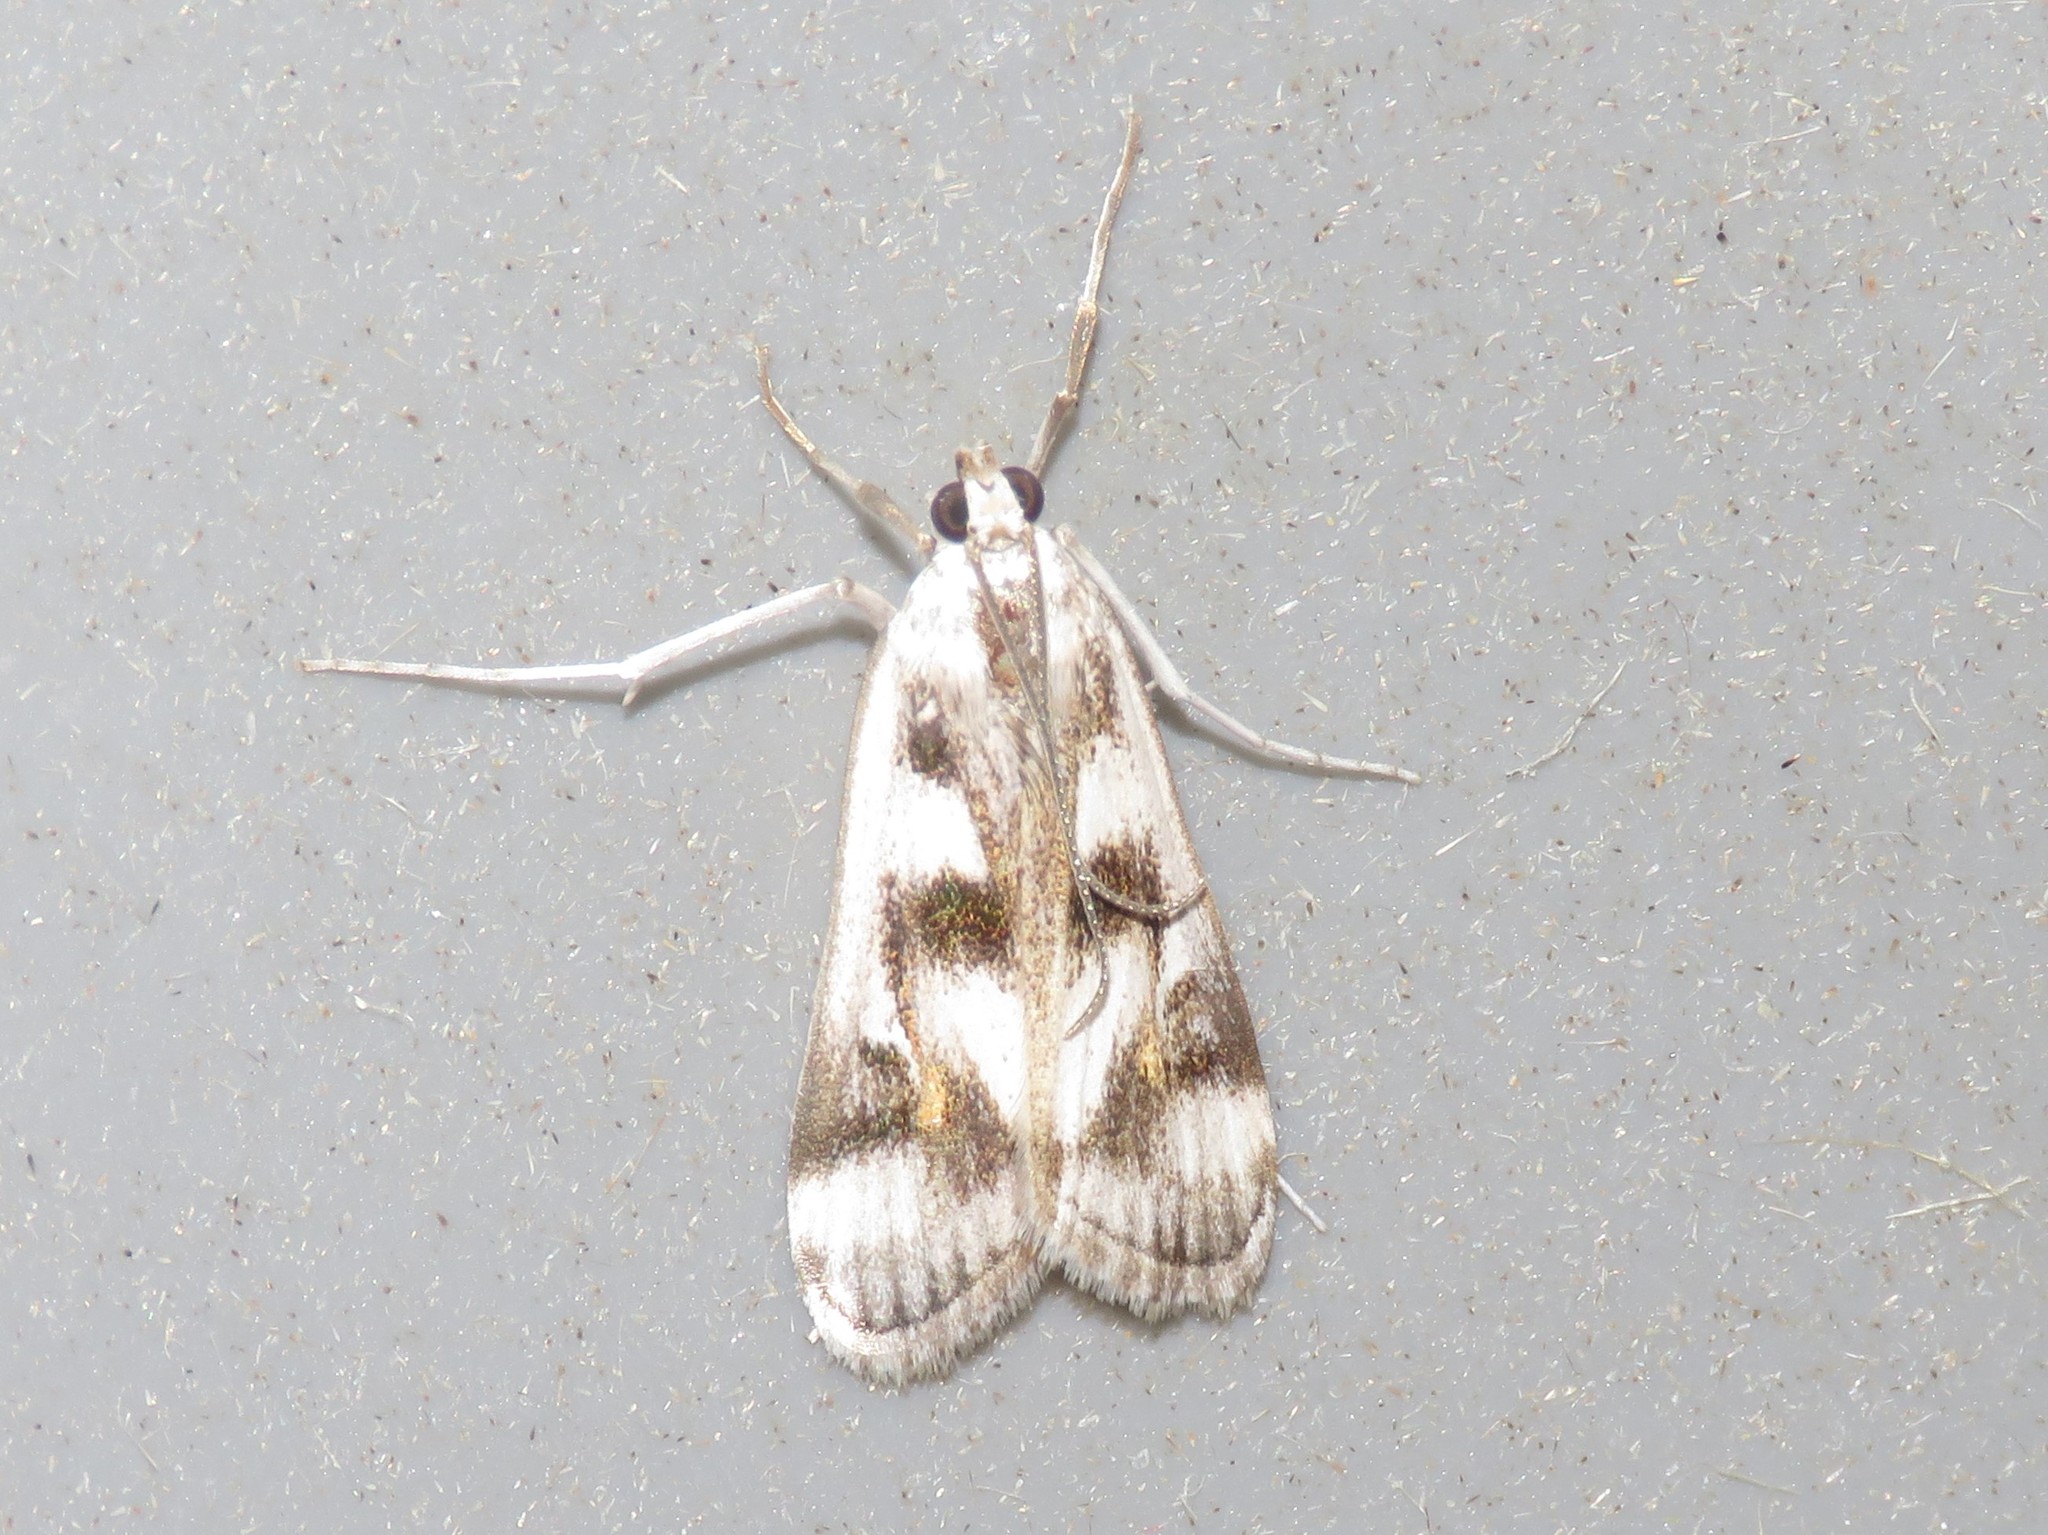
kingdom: Animalia
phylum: Arthropoda
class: Insecta
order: Lepidoptera
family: Crambidae
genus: Parapoynx
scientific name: Parapoynx maculalis
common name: Polymorphic pondweed moth
